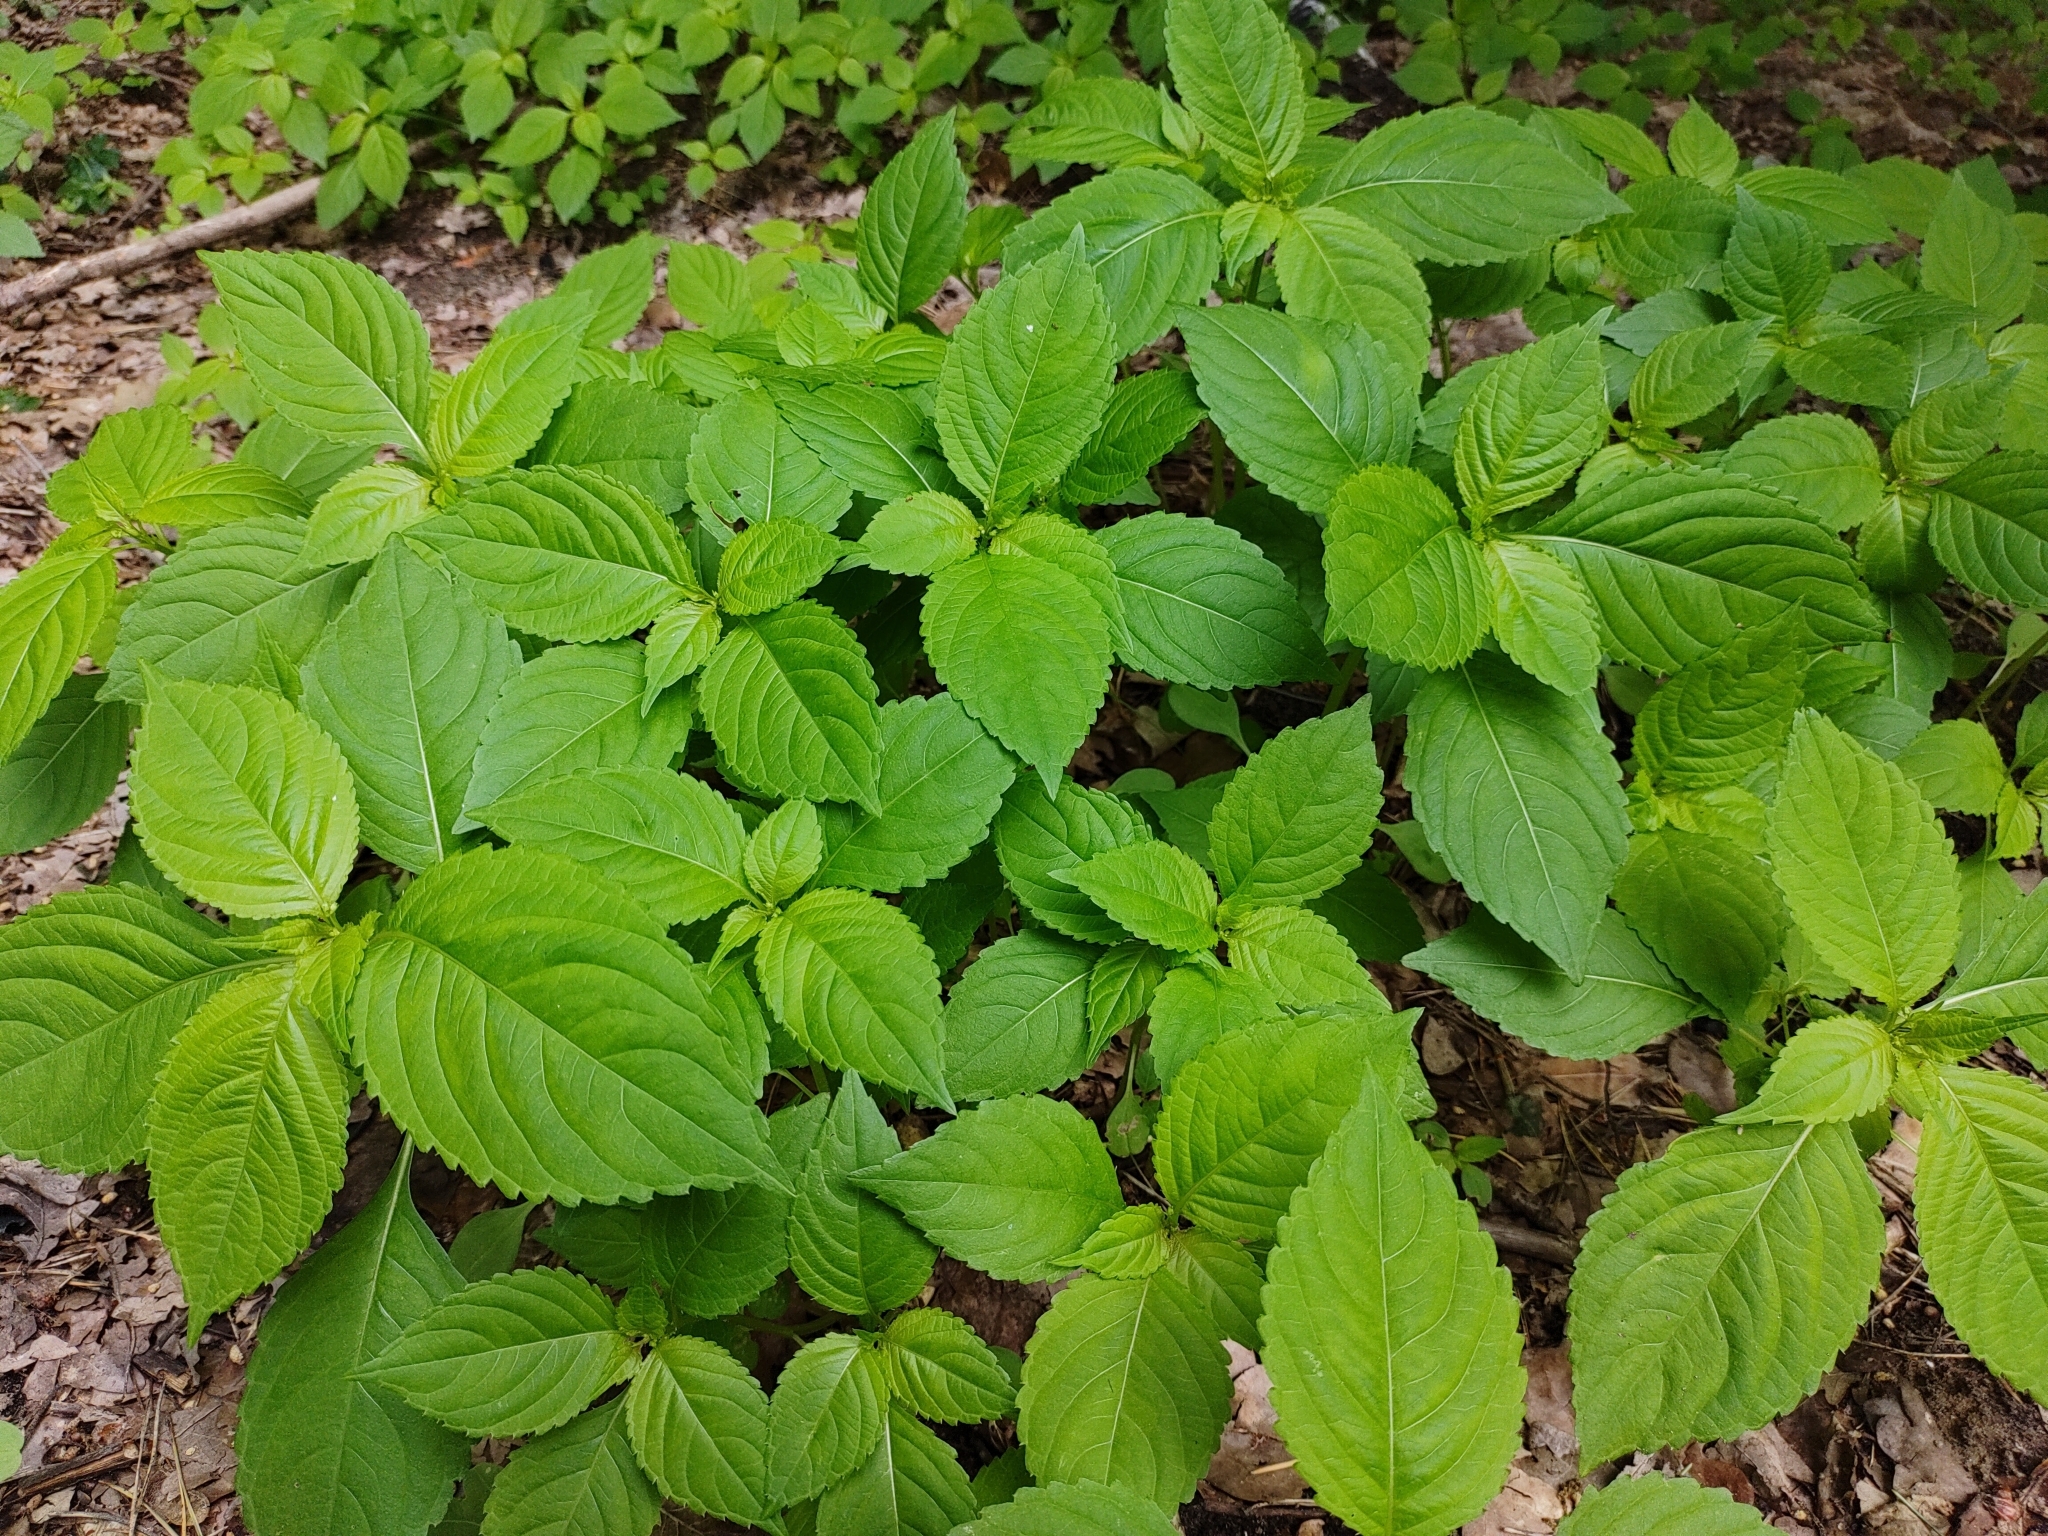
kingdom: Plantae
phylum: Tracheophyta
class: Magnoliopsida
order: Ericales
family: Balsaminaceae
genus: Impatiens
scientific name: Impatiens parviflora
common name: Small balsam
